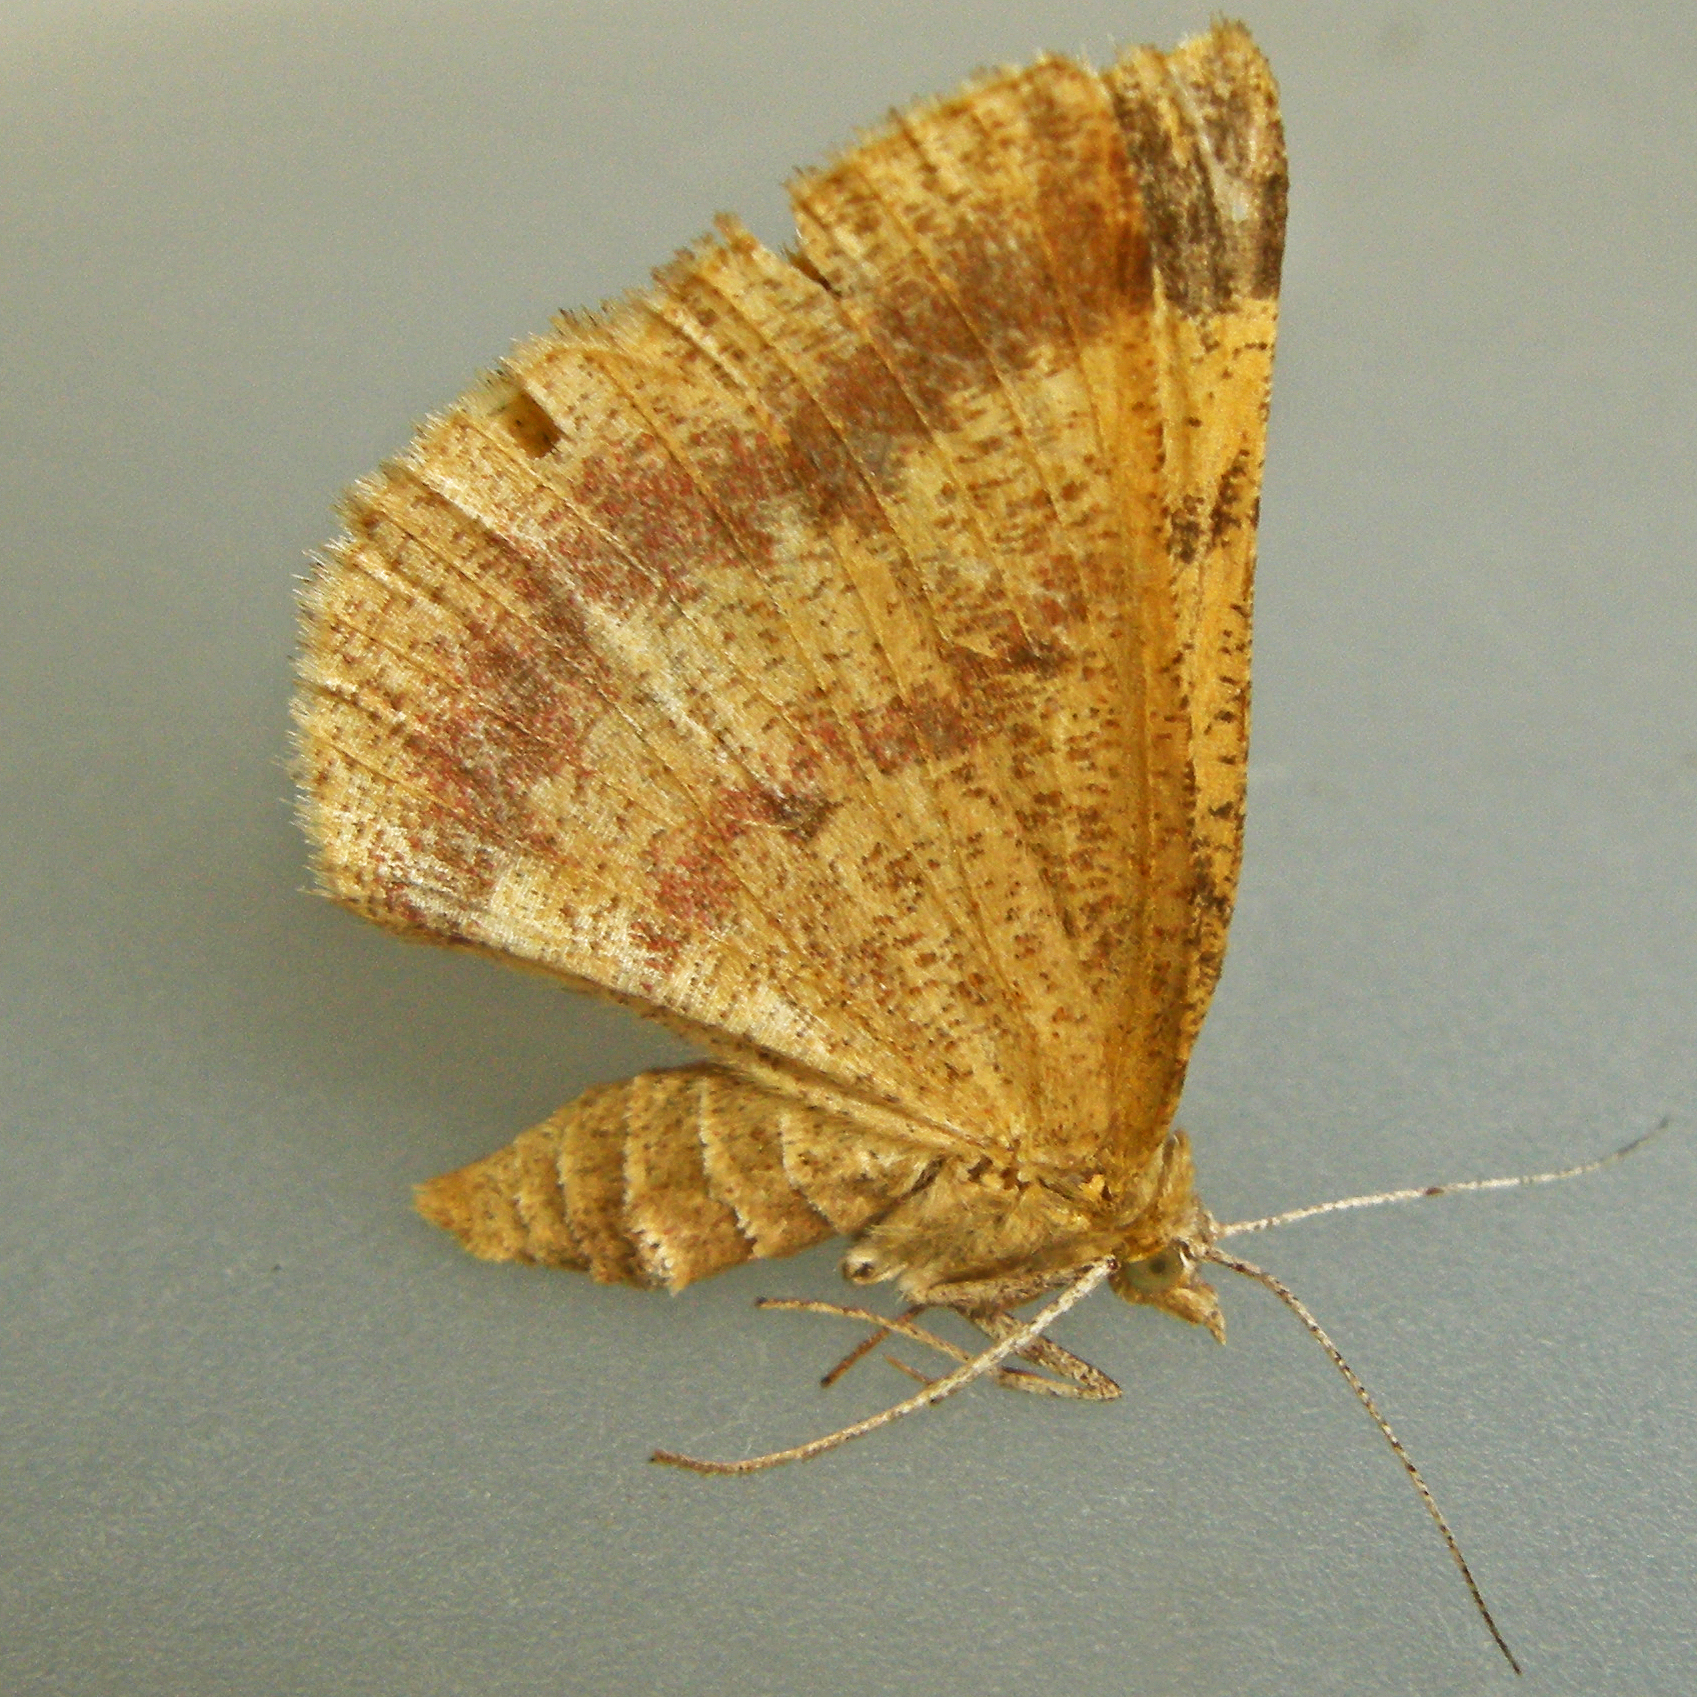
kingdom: Animalia
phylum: Arthropoda
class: Insecta
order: Lepidoptera
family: Geometridae
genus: Erastria
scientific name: Erastria coloraria
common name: Broad-lined erastra
